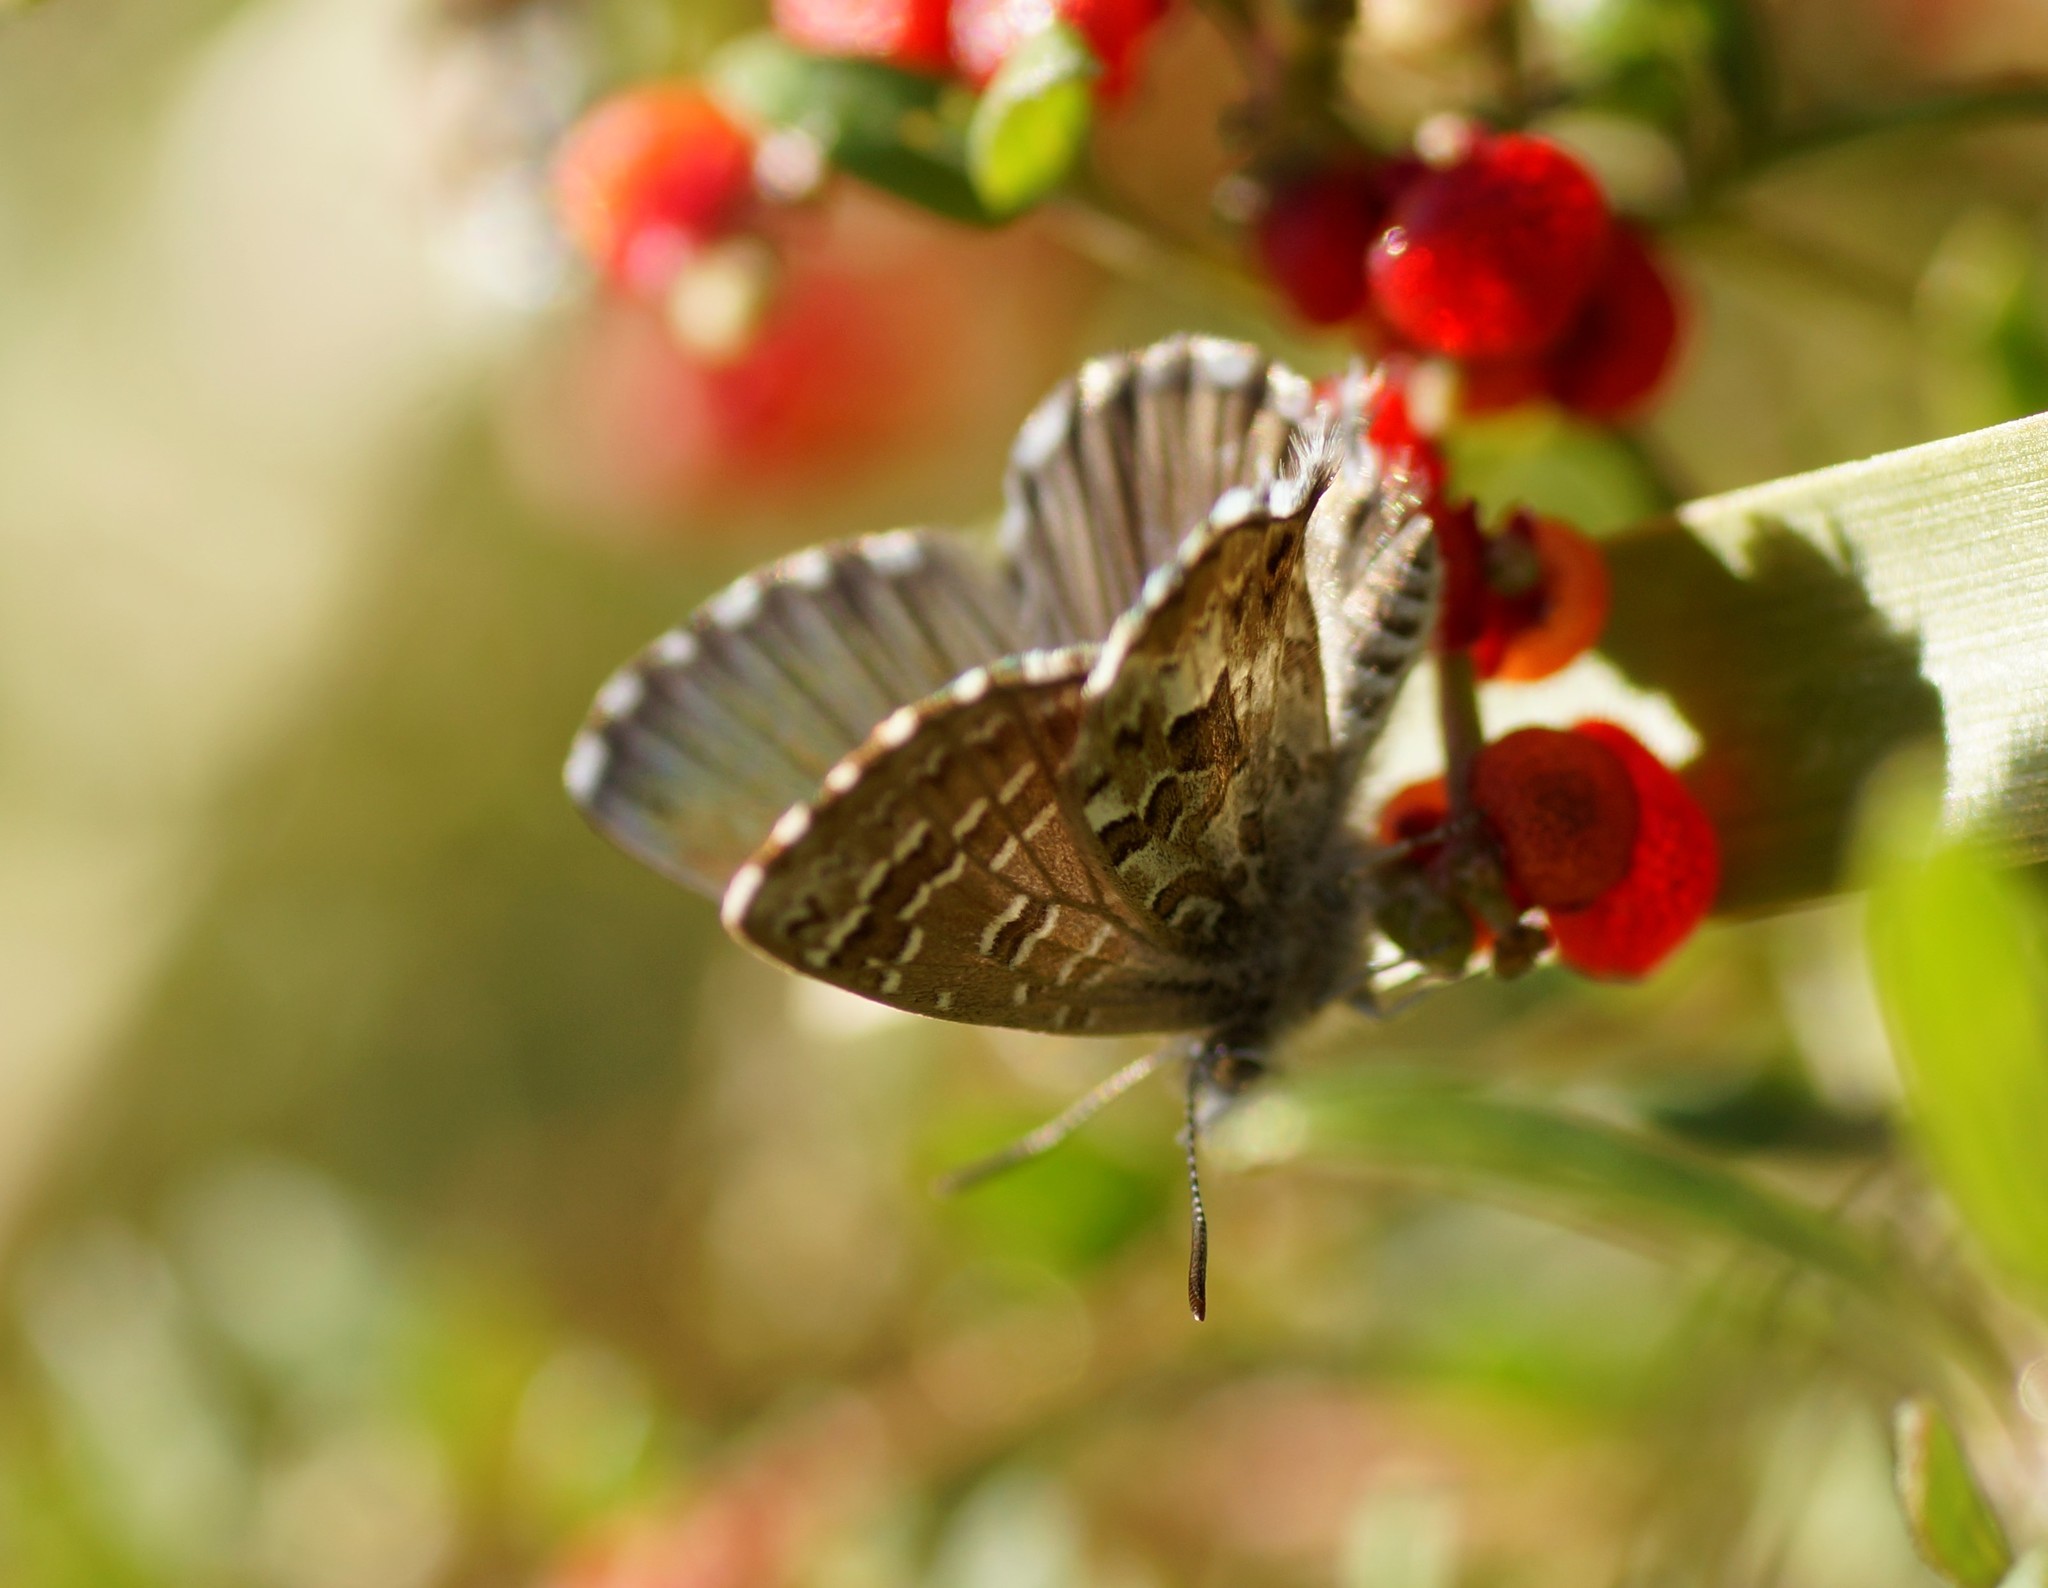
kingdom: Animalia
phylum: Arthropoda
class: Insecta
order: Lepidoptera
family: Lycaenidae
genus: Theclinesthes
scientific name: Theclinesthes serpentata
